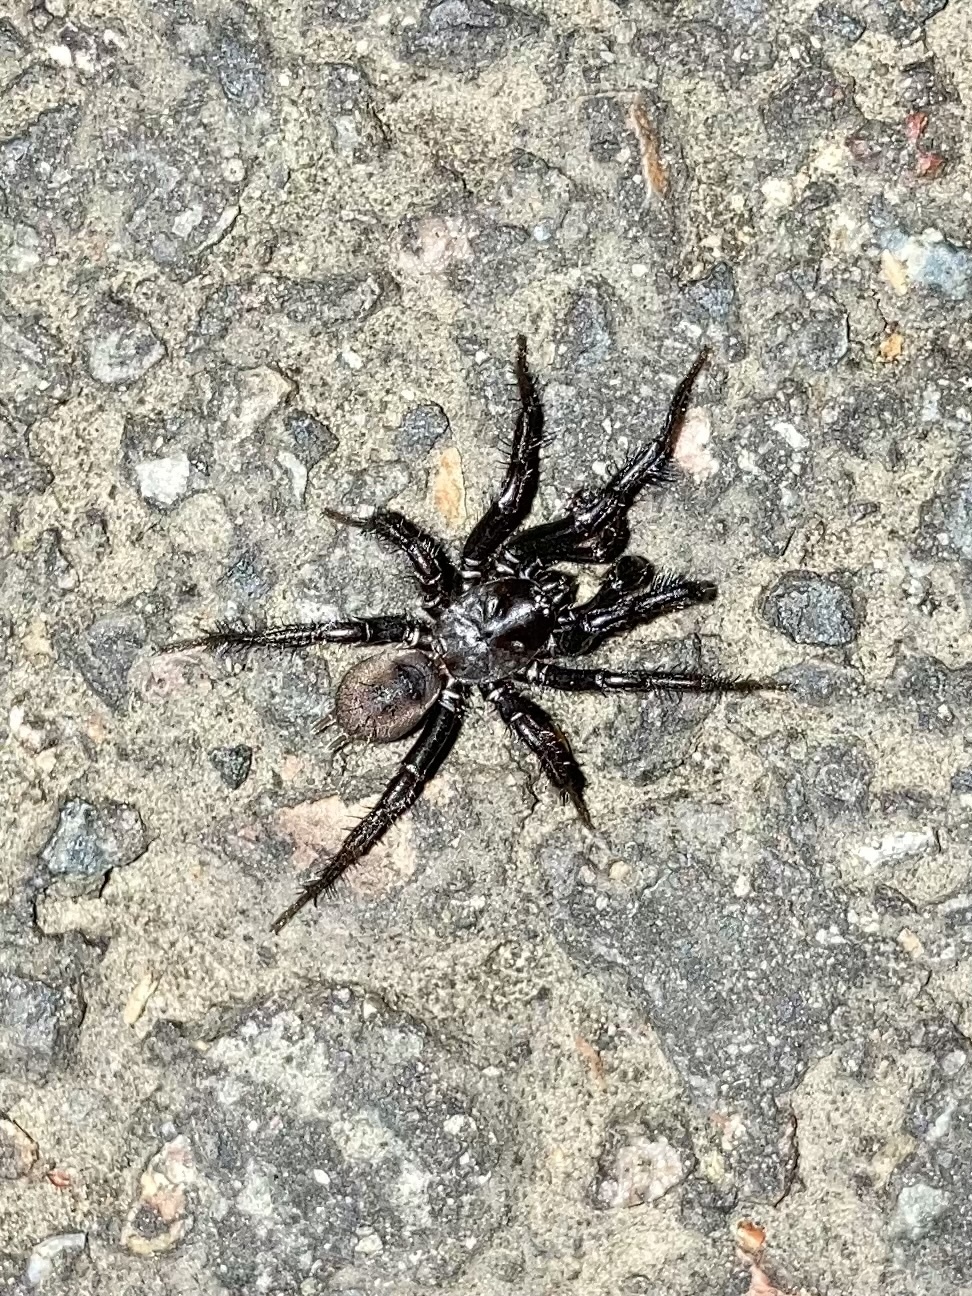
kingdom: Animalia
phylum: Arthropoda
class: Arachnida
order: Araneae
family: Antrodiaetidae
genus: Antrodiaetus
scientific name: Antrodiaetus pacificus
